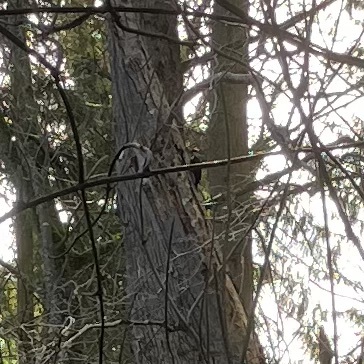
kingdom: Animalia
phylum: Chordata
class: Aves
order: Piciformes
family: Picidae
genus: Dryocopus
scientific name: Dryocopus pileatus
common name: Pileated woodpecker
